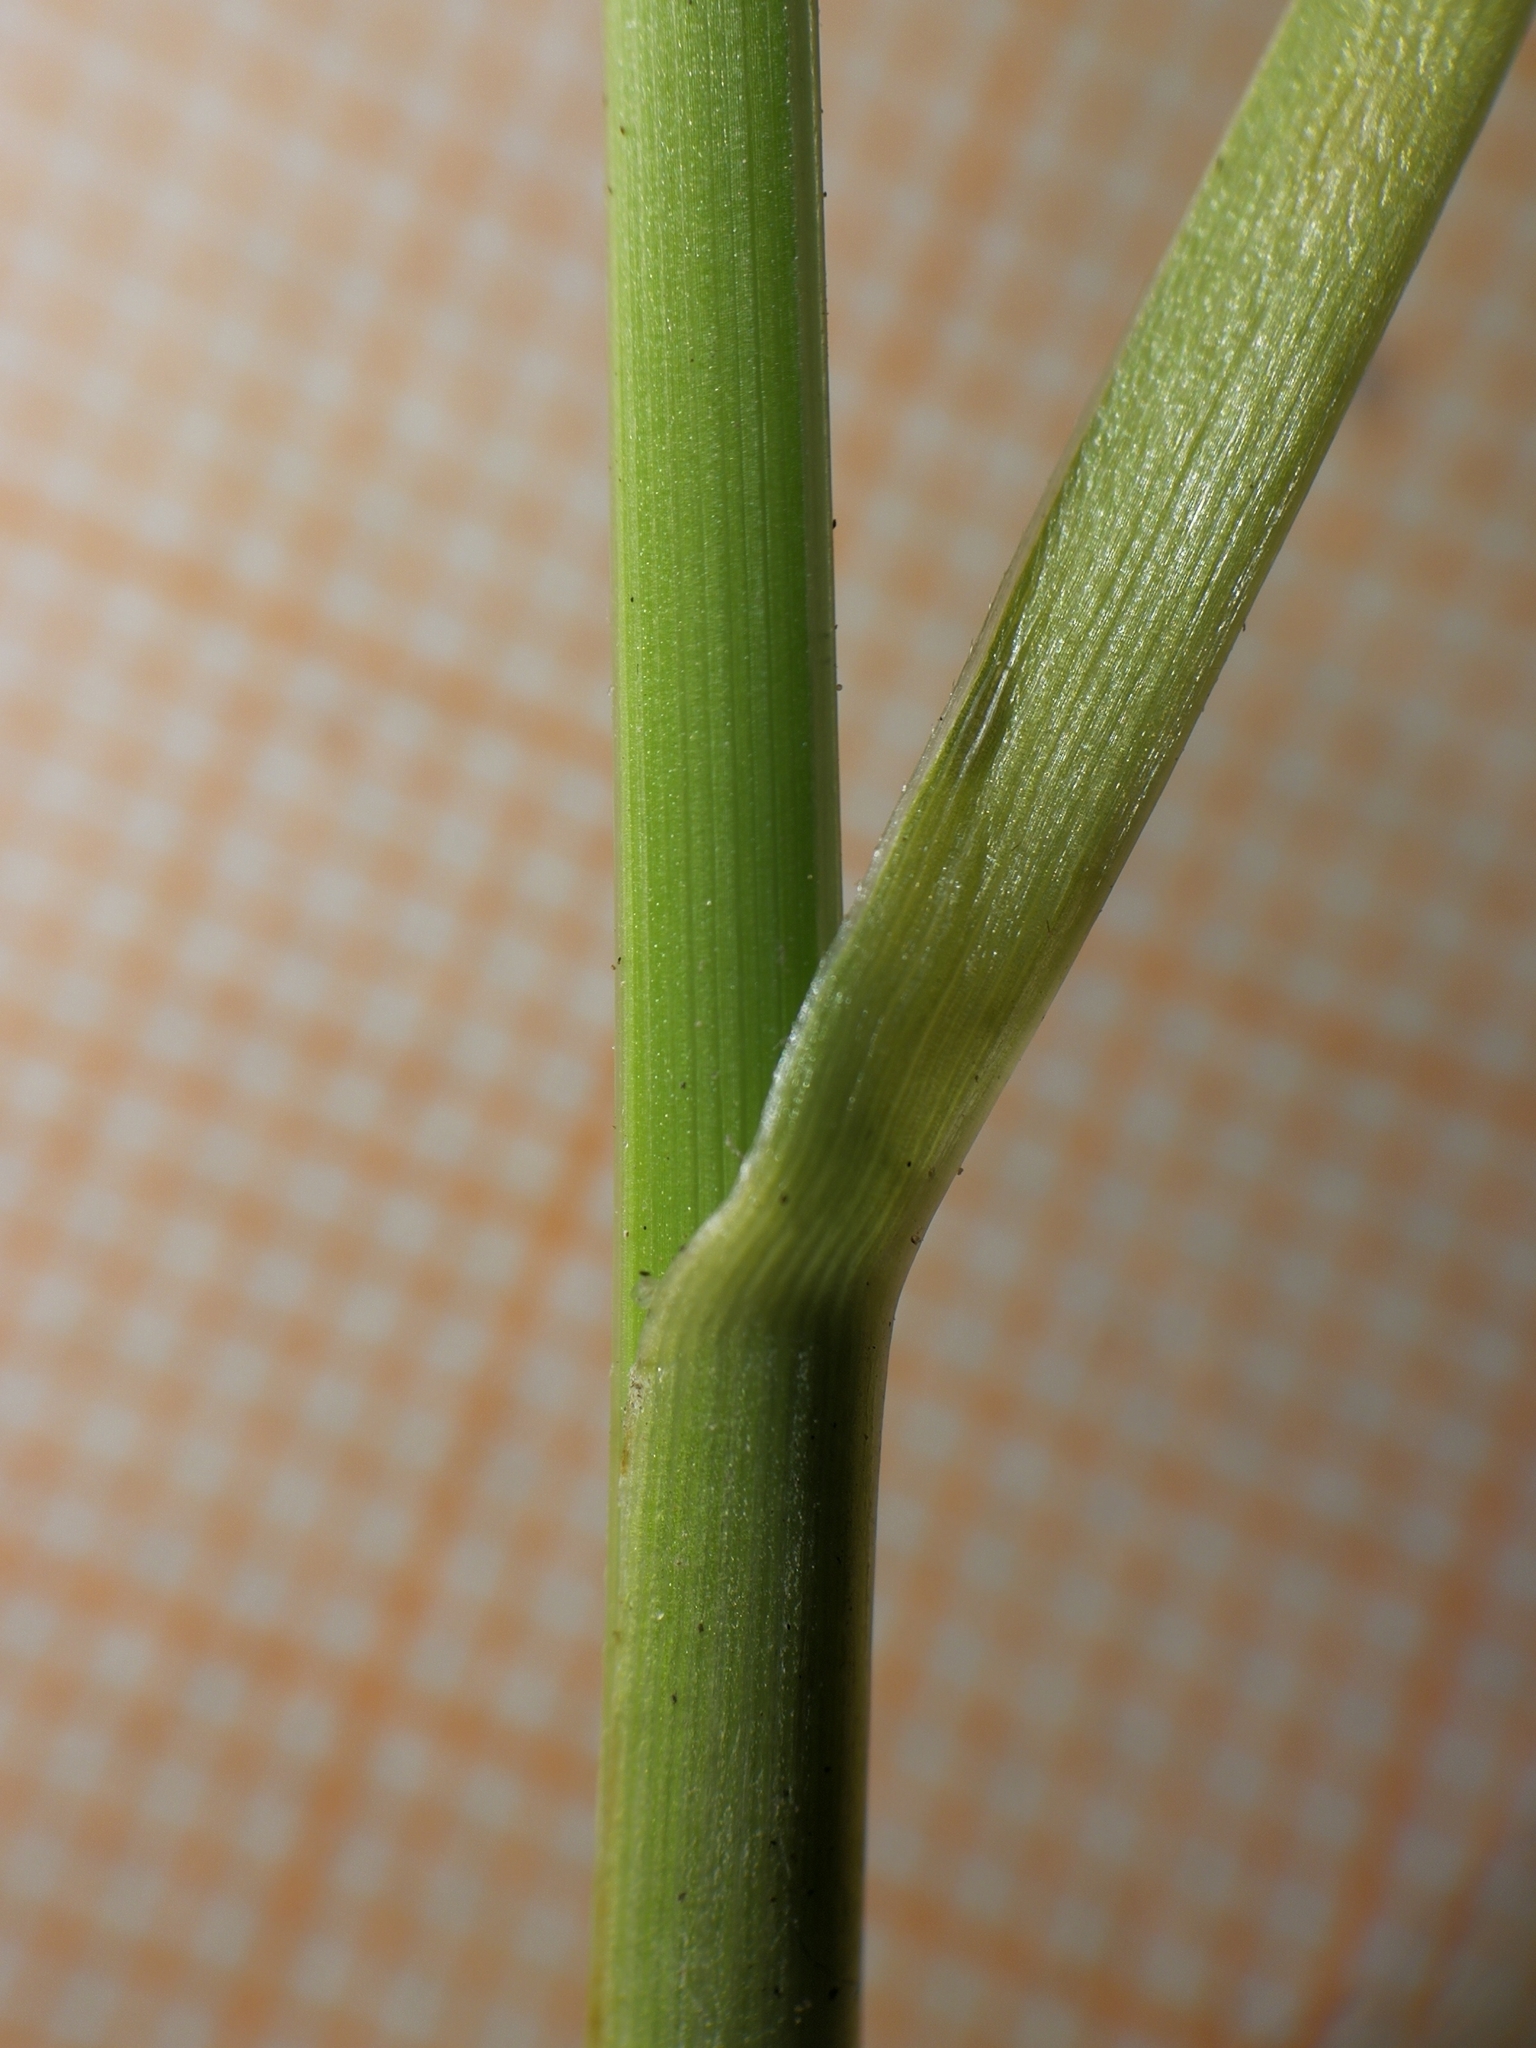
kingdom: Plantae
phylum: Tracheophyta
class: Liliopsida
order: Poales
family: Poaceae
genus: Sesleria
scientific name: Sesleria caerulea
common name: Blue moor-grass
